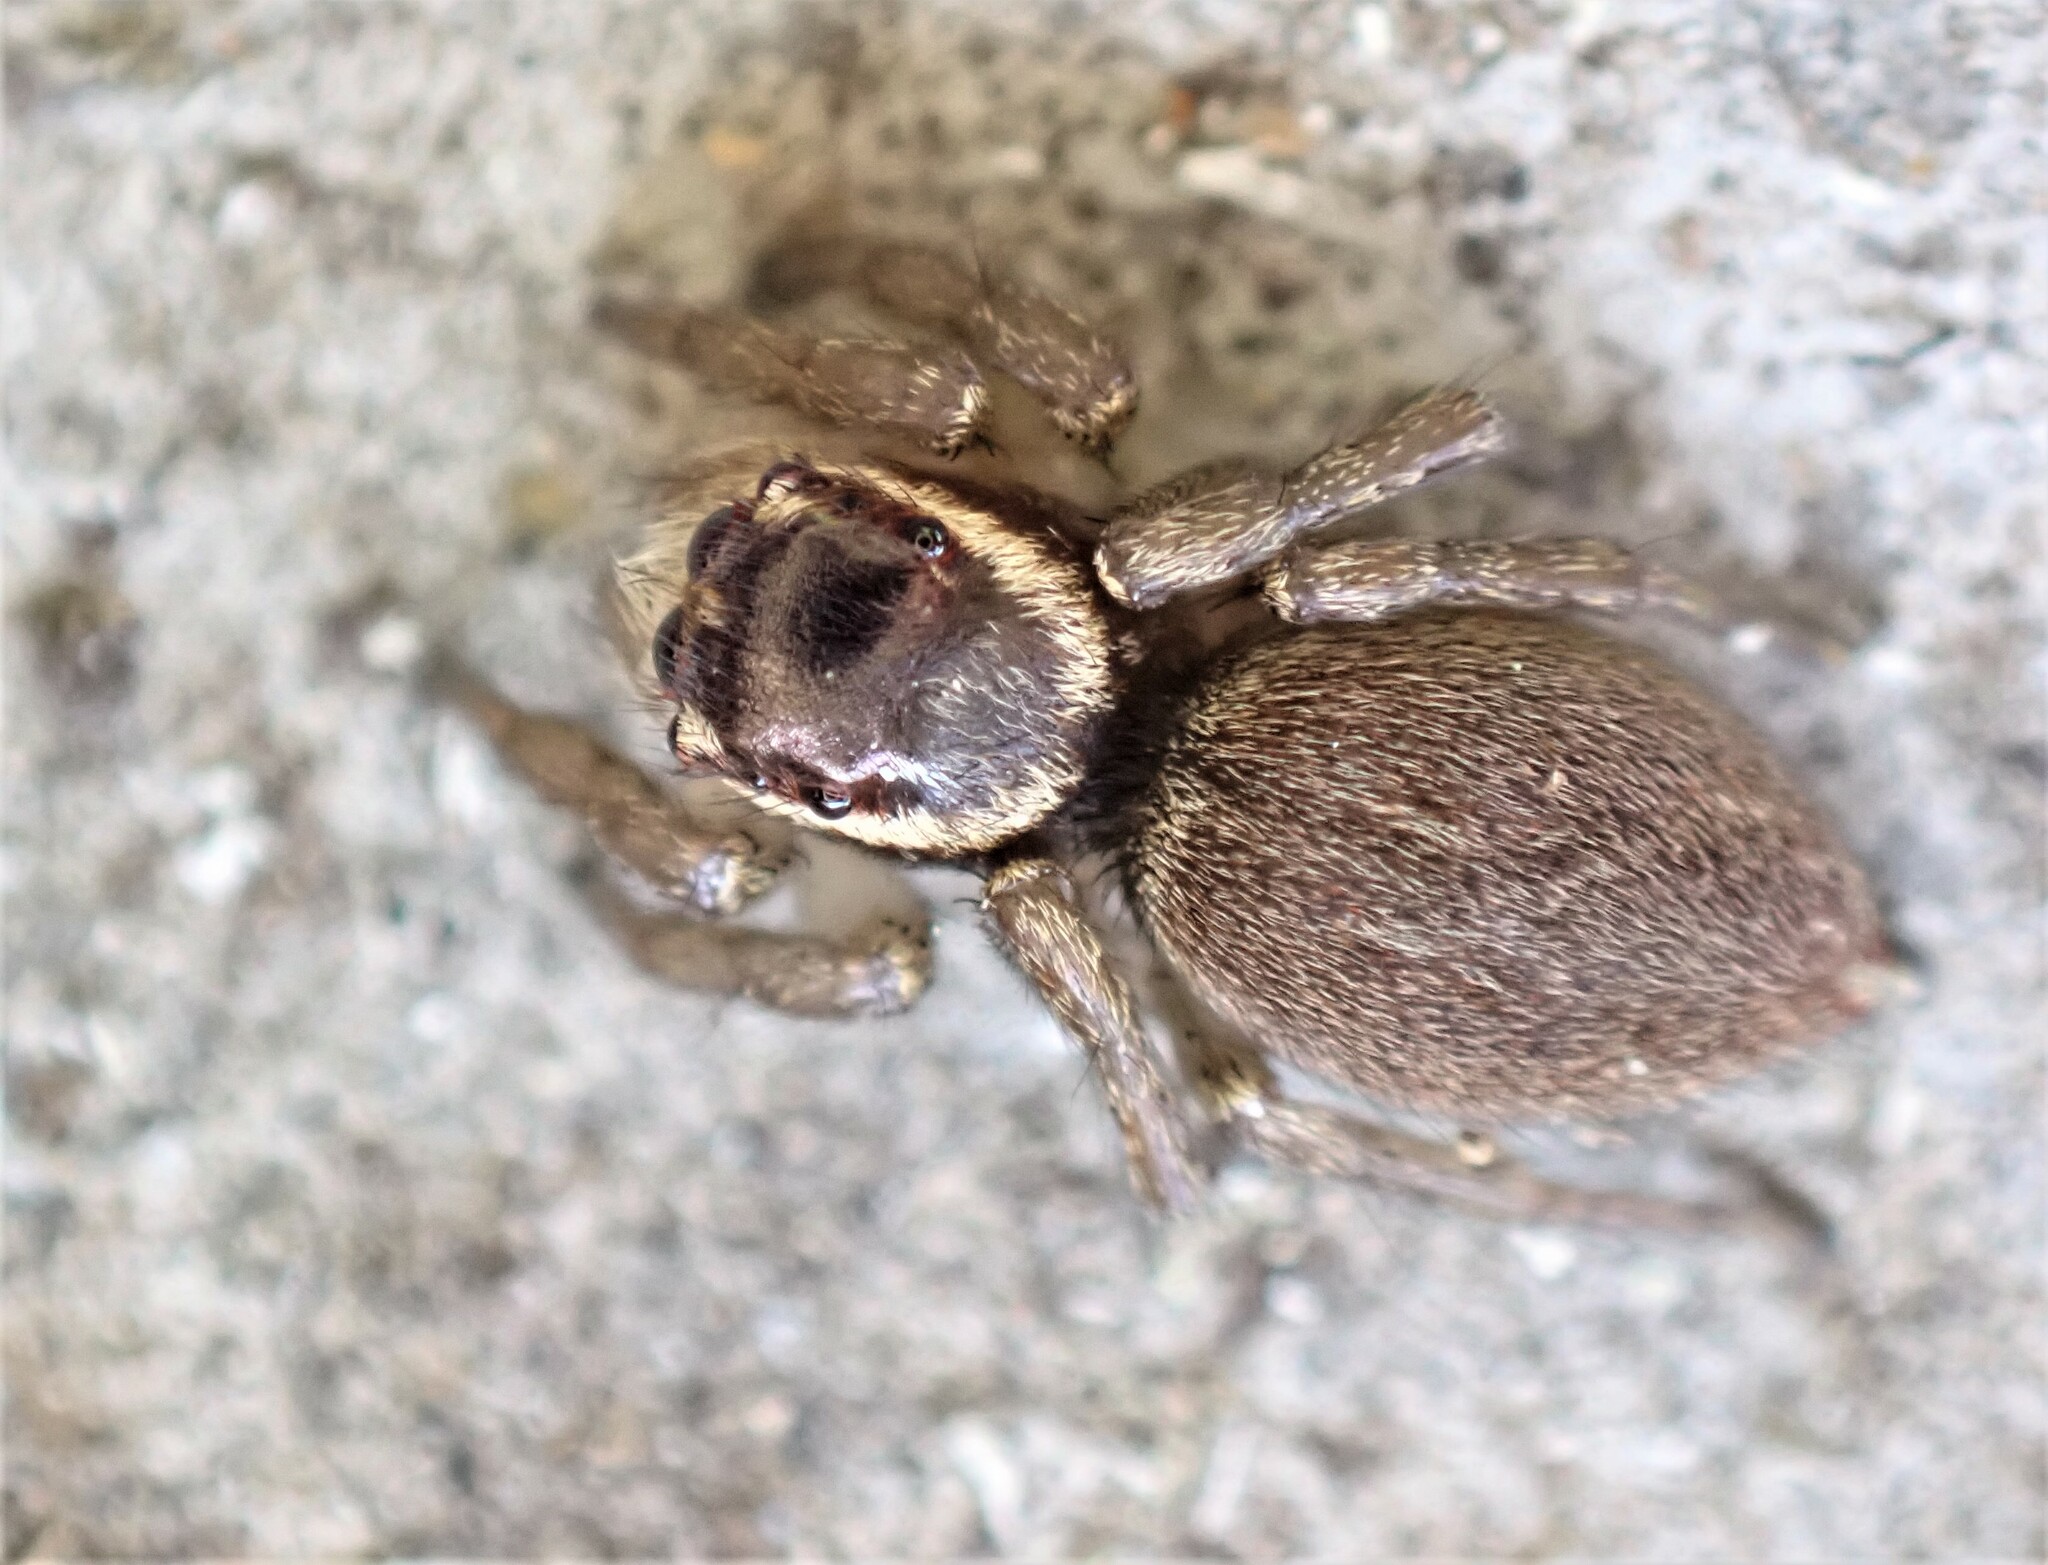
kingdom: Animalia
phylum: Arthropoda
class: Arachnida
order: Araneae
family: Salticidae
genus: Maratus
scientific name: Maratus griseus
